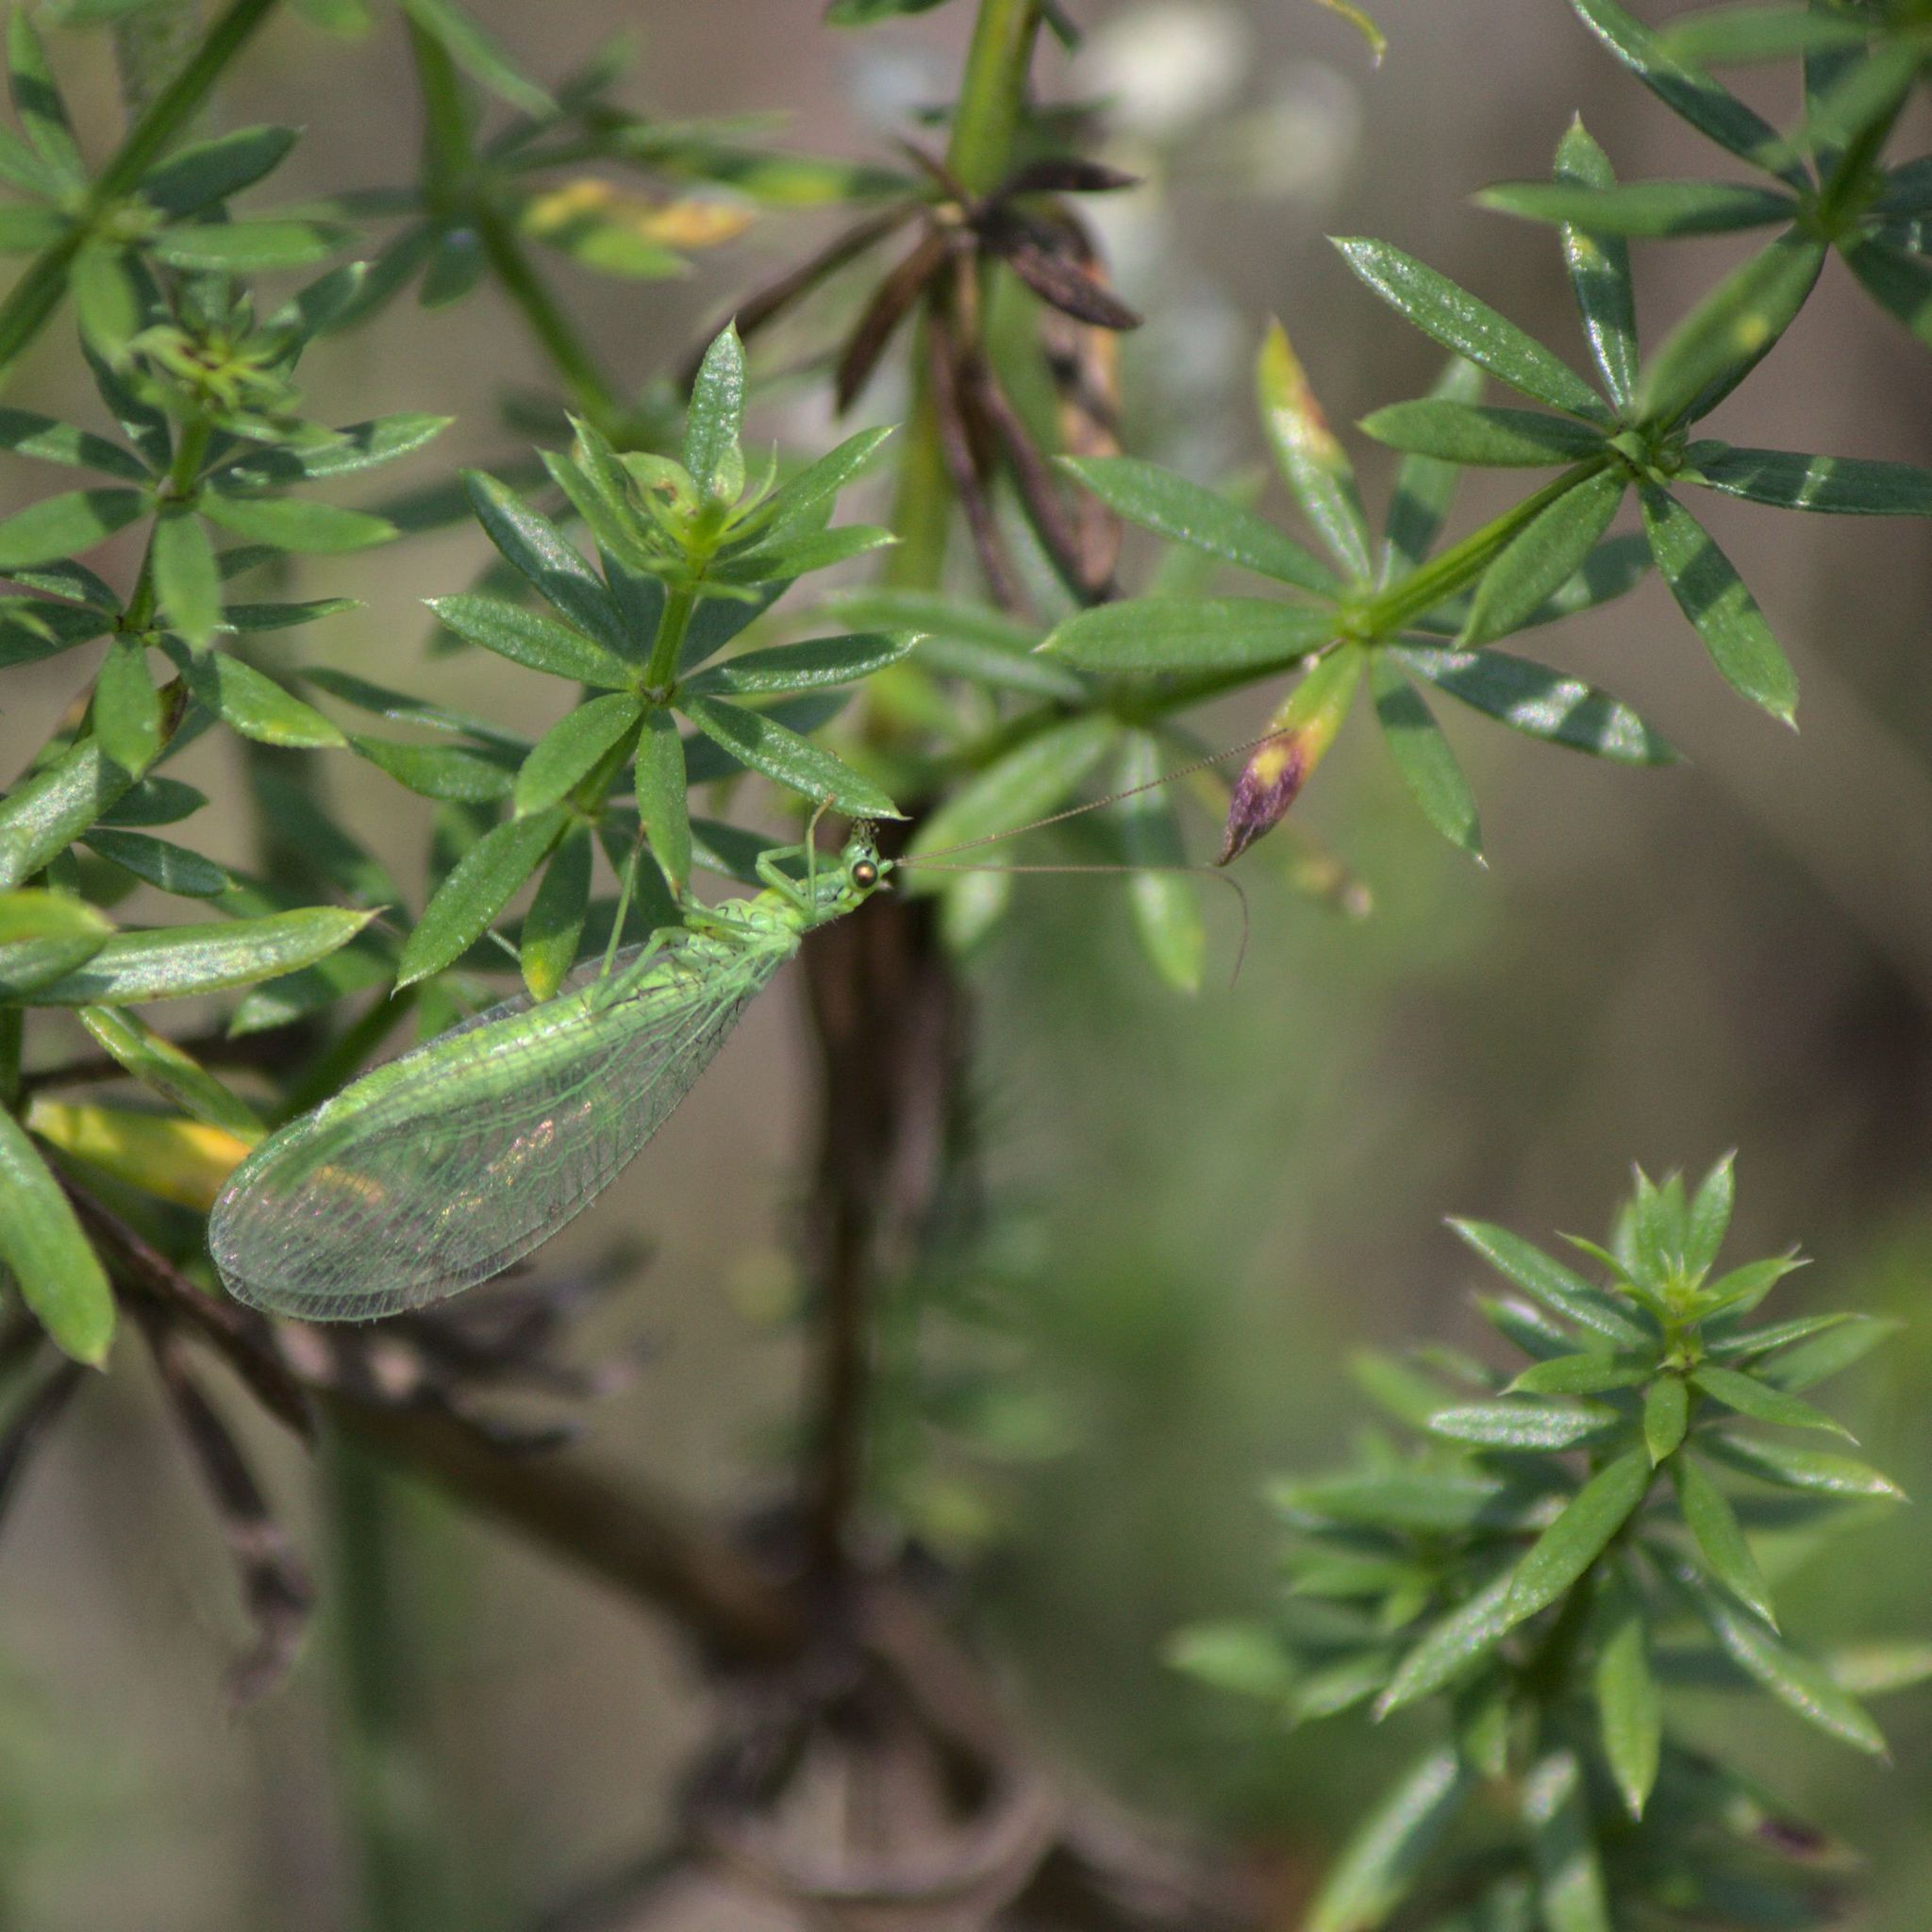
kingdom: Animalia
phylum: Arthropoda
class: Insecta
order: Neuroptera
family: Chrysopidae
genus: Chrysopa
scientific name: Chrysopa
